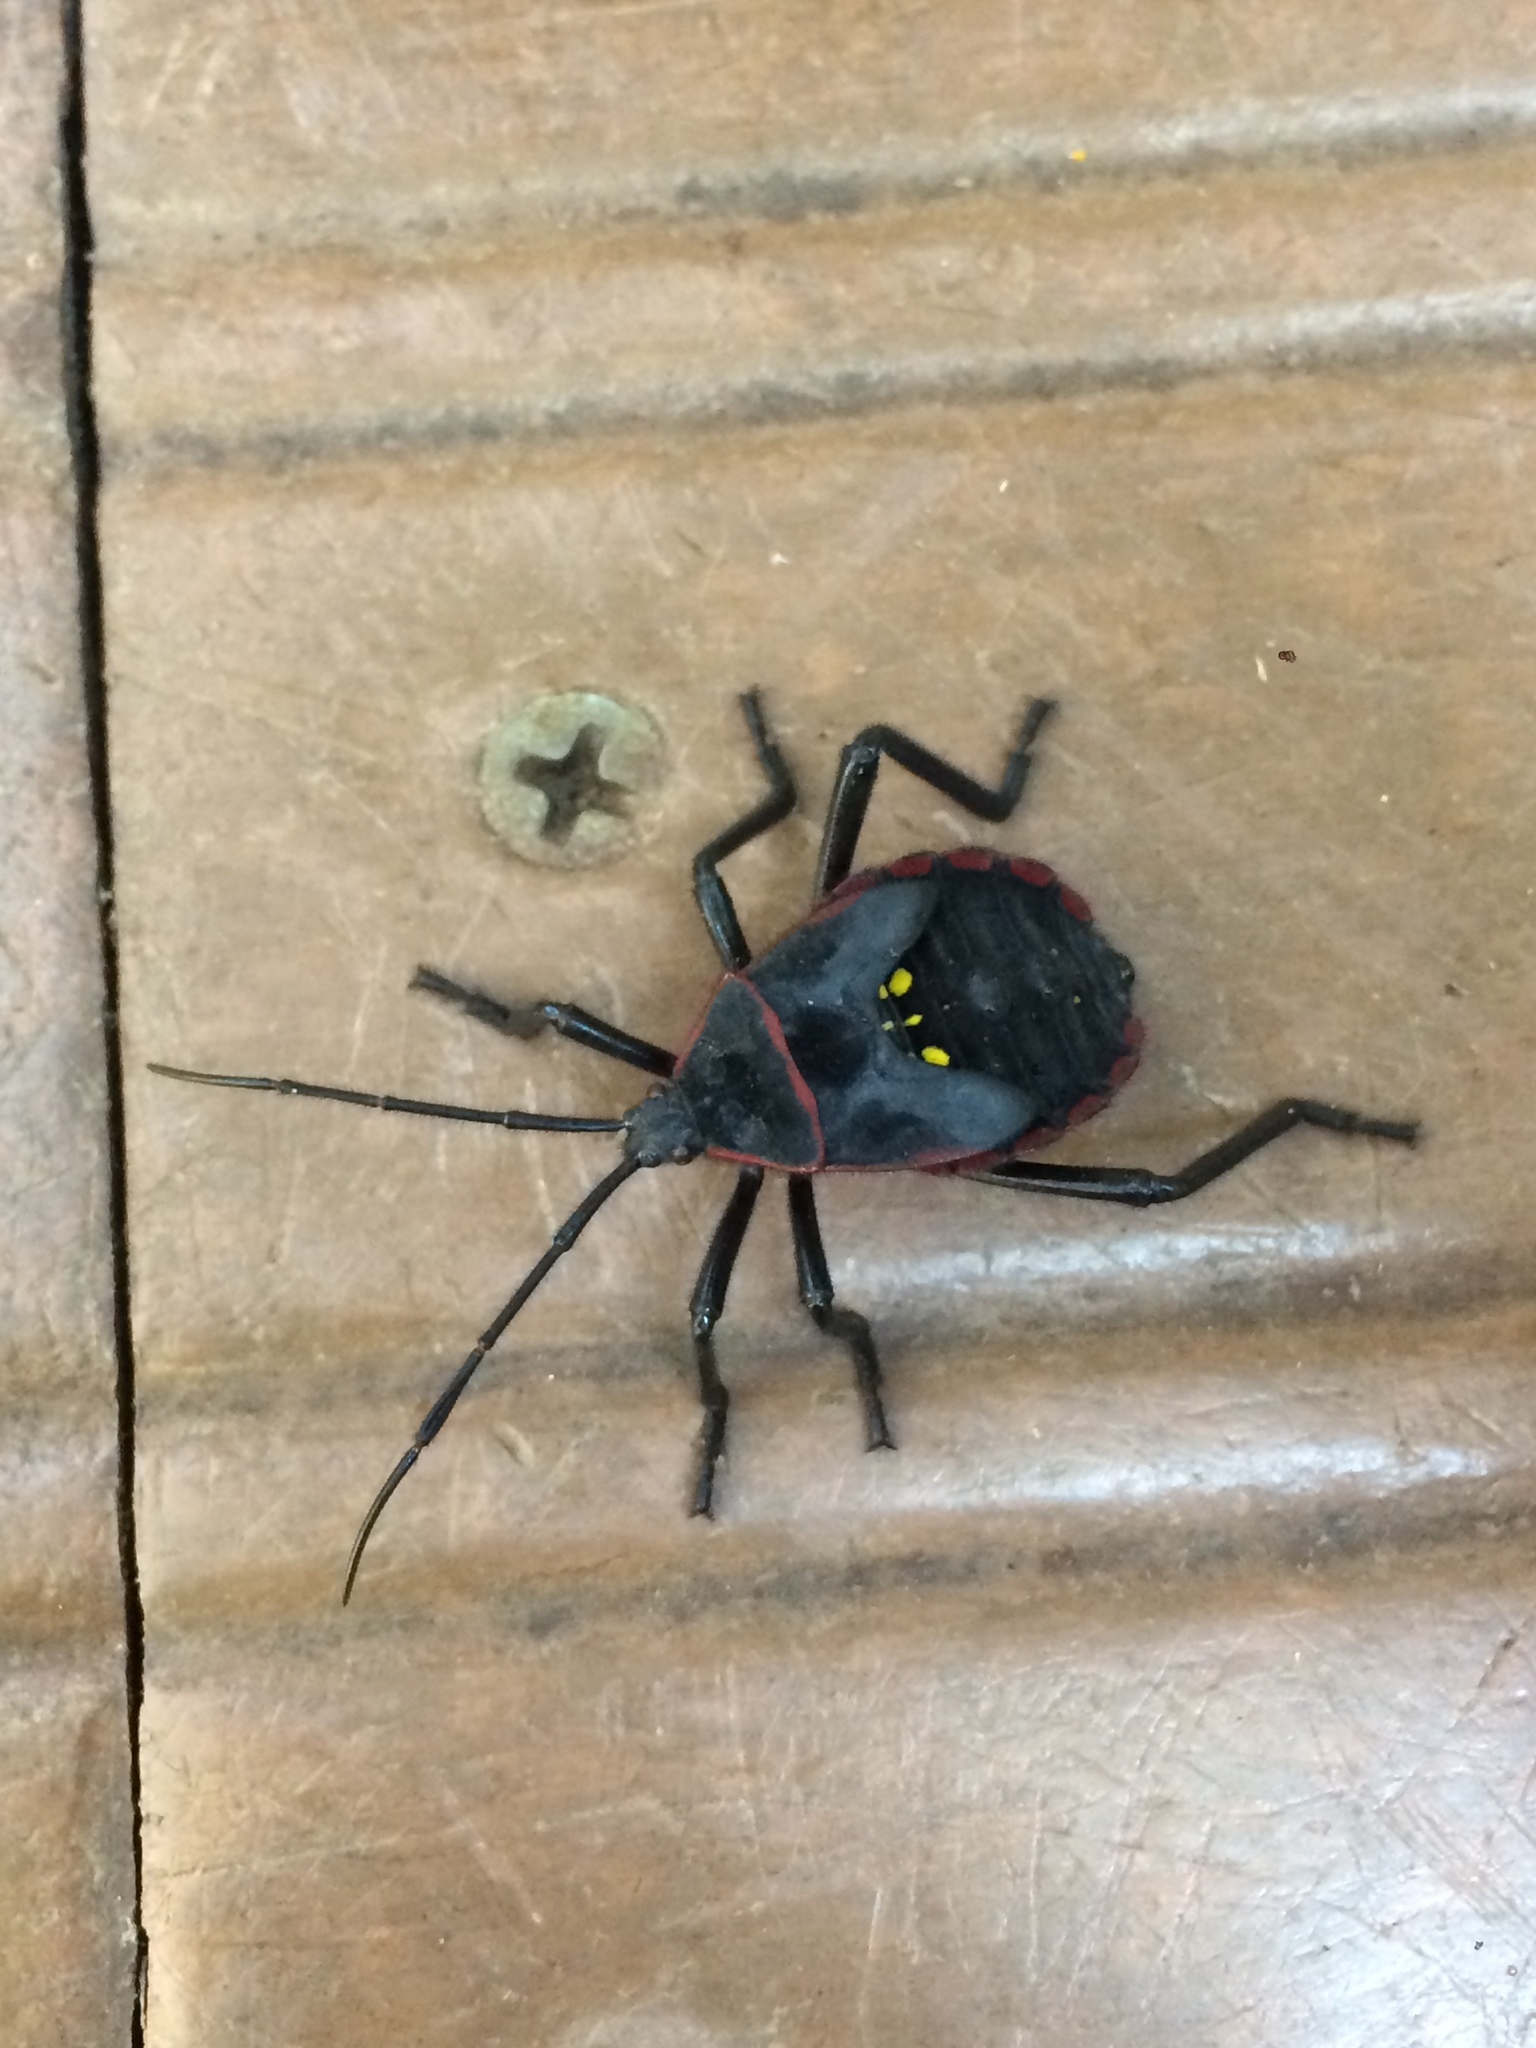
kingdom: Animalia
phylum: Arthropoda
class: Insecta
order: Hemiptera
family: Coreidae
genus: Pachylis
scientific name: Pachylis pharaonis
